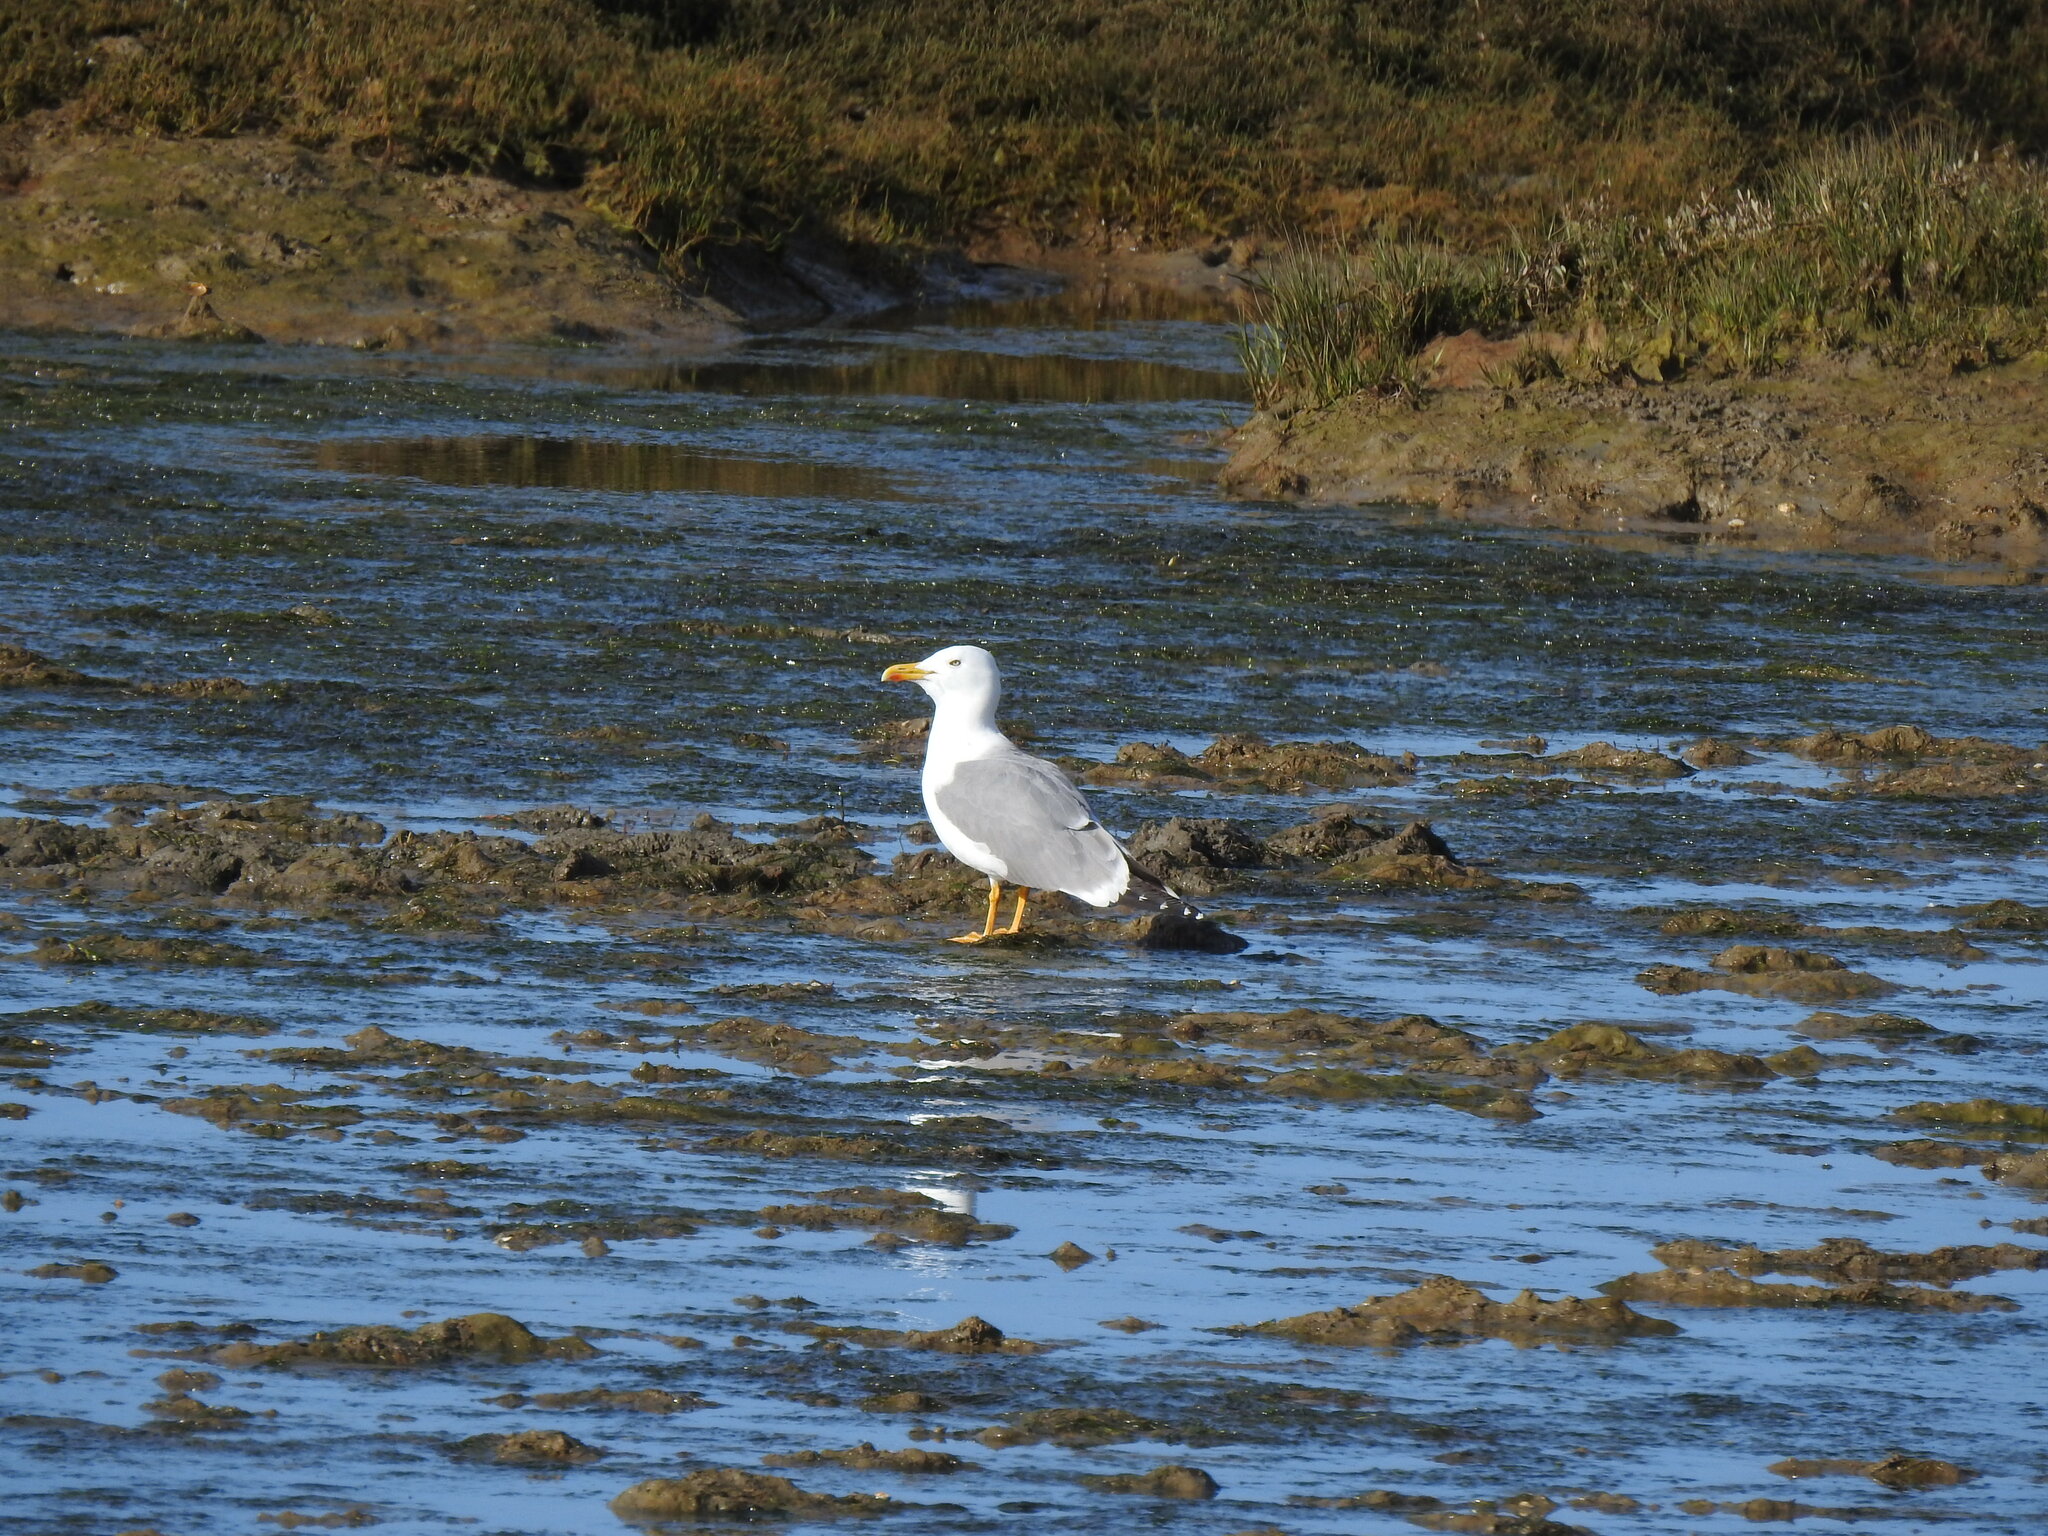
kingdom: Animalia
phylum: Chordata
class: Aves
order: Charadriiformes
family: Laridae
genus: Larus
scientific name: Larus michahellis
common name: Yellow-legged gull
